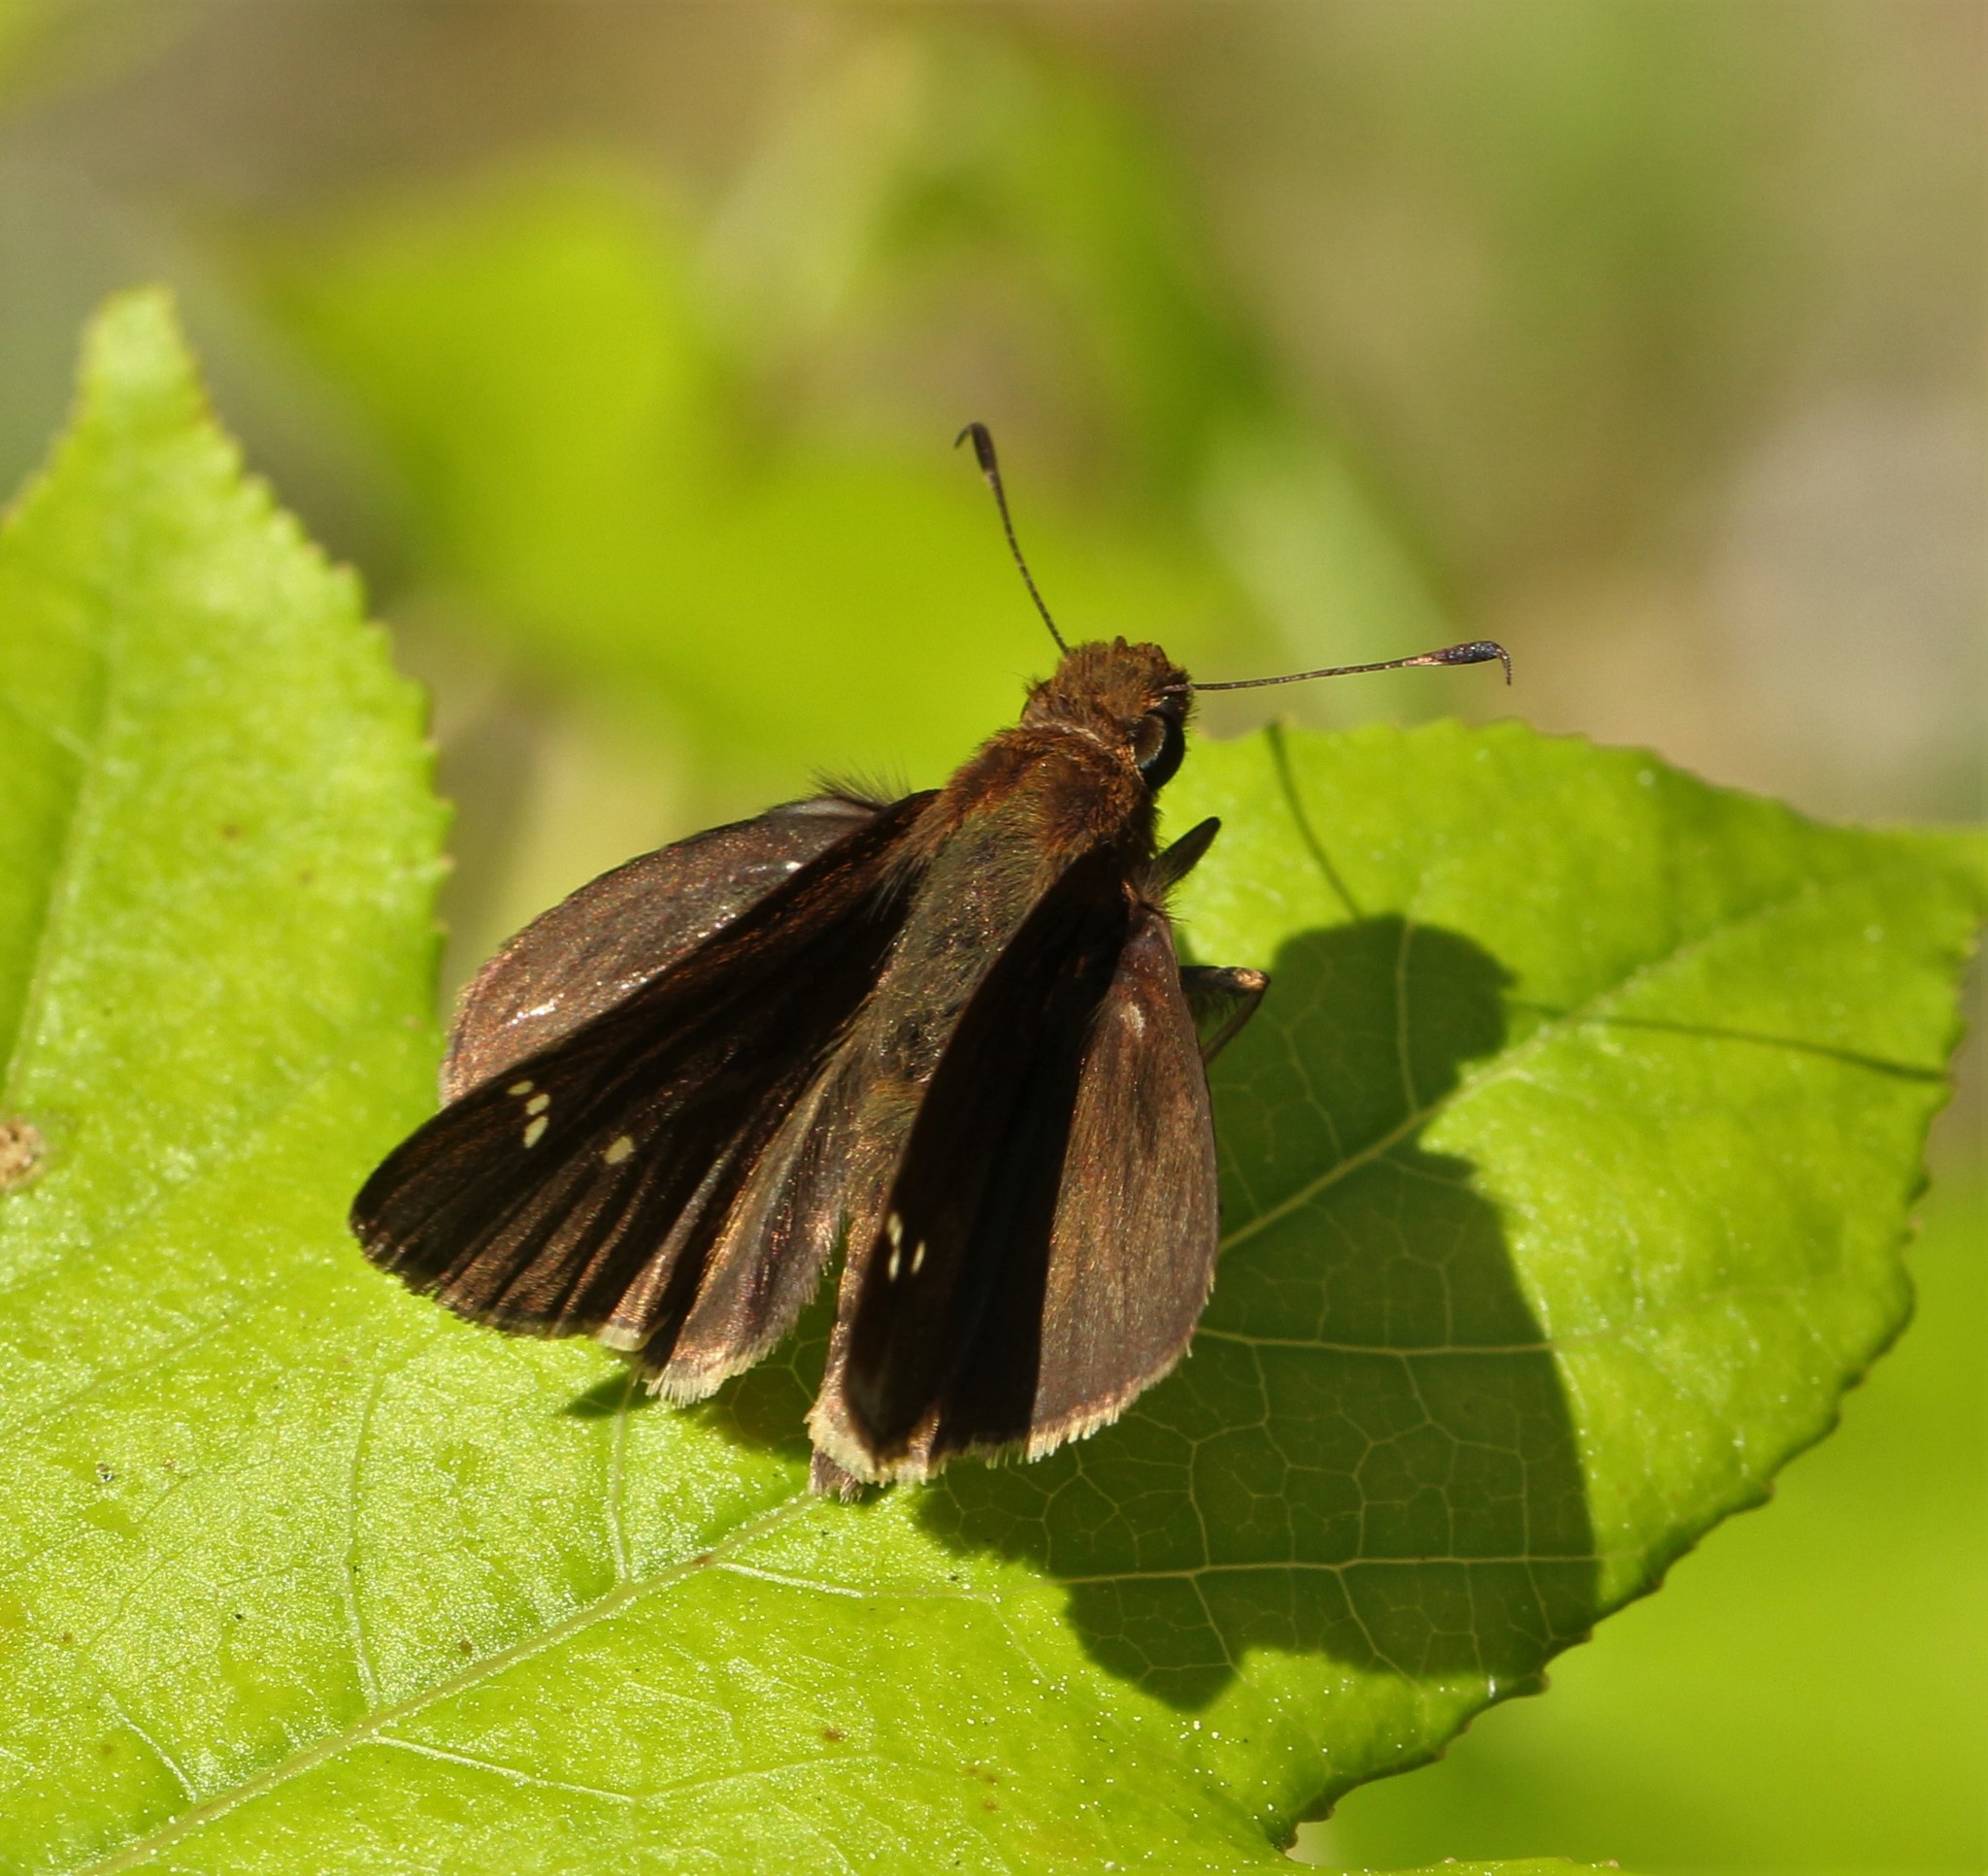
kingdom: Animalia
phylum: Arthropoda
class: Insecta
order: Lepidoptera
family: Hesperiidae
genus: Lerema
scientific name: Lerema accius
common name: Clouded skipper
